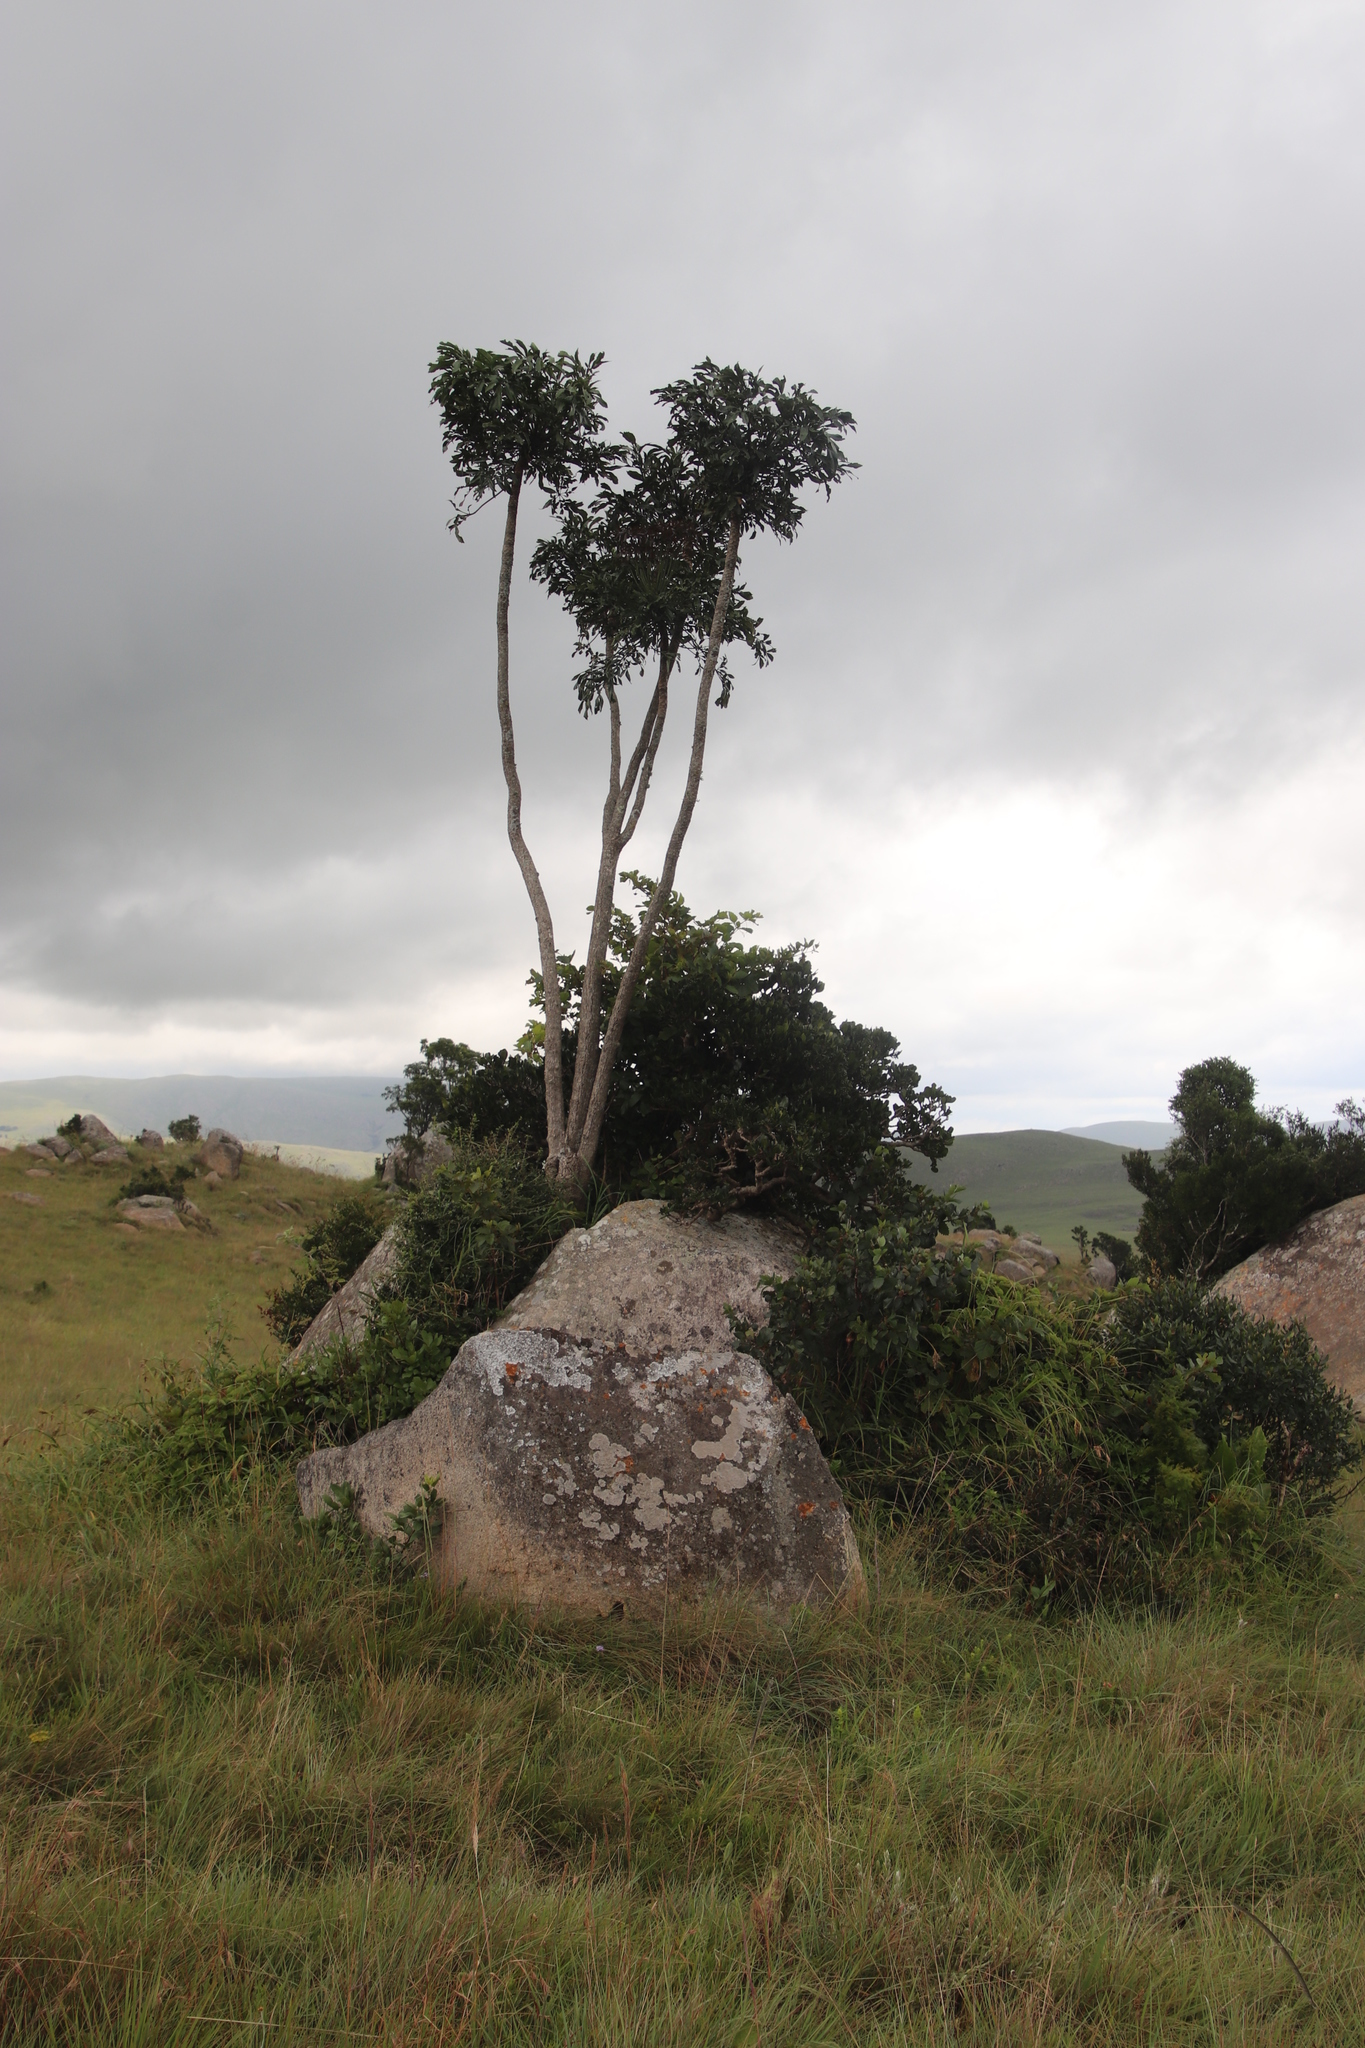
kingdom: Plantae
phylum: Tracheophyta
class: Magnoliopsida
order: Apiales
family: Araliaceae
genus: Cussonia
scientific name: Cussonia spicata
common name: Common cabbagetree
